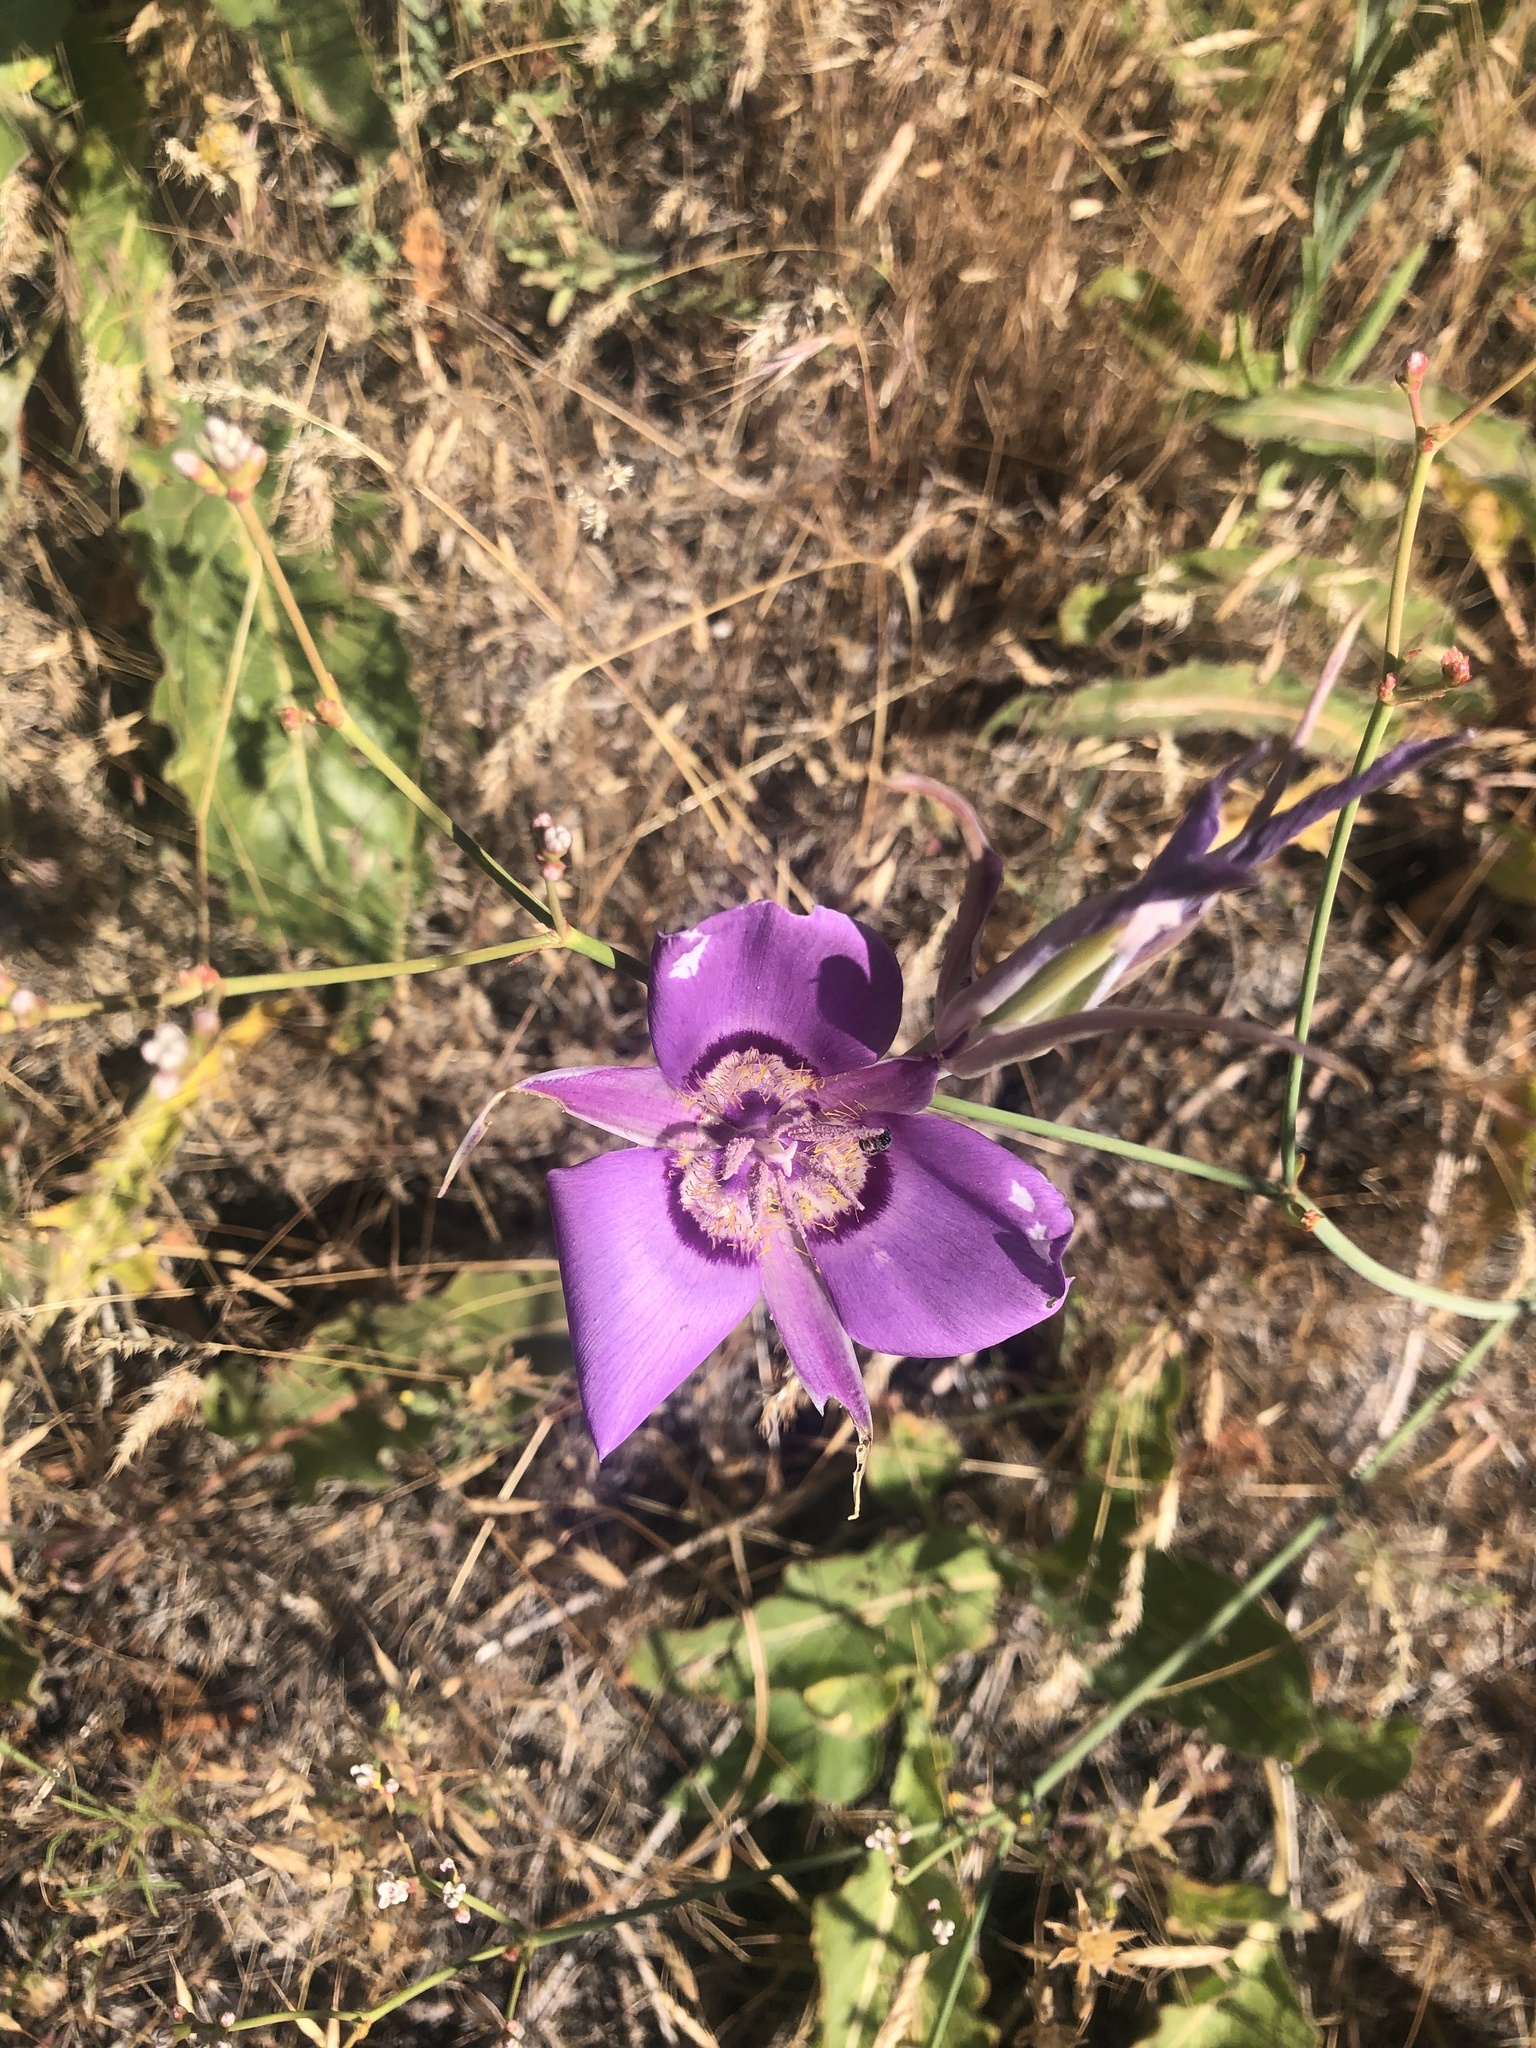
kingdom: Plantae
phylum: Tracheophyta
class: Liliopsida
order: Liliales
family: Liliaceae
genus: Calochortus
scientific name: Calochortus macrocarpus
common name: Green-band mariposa lily
